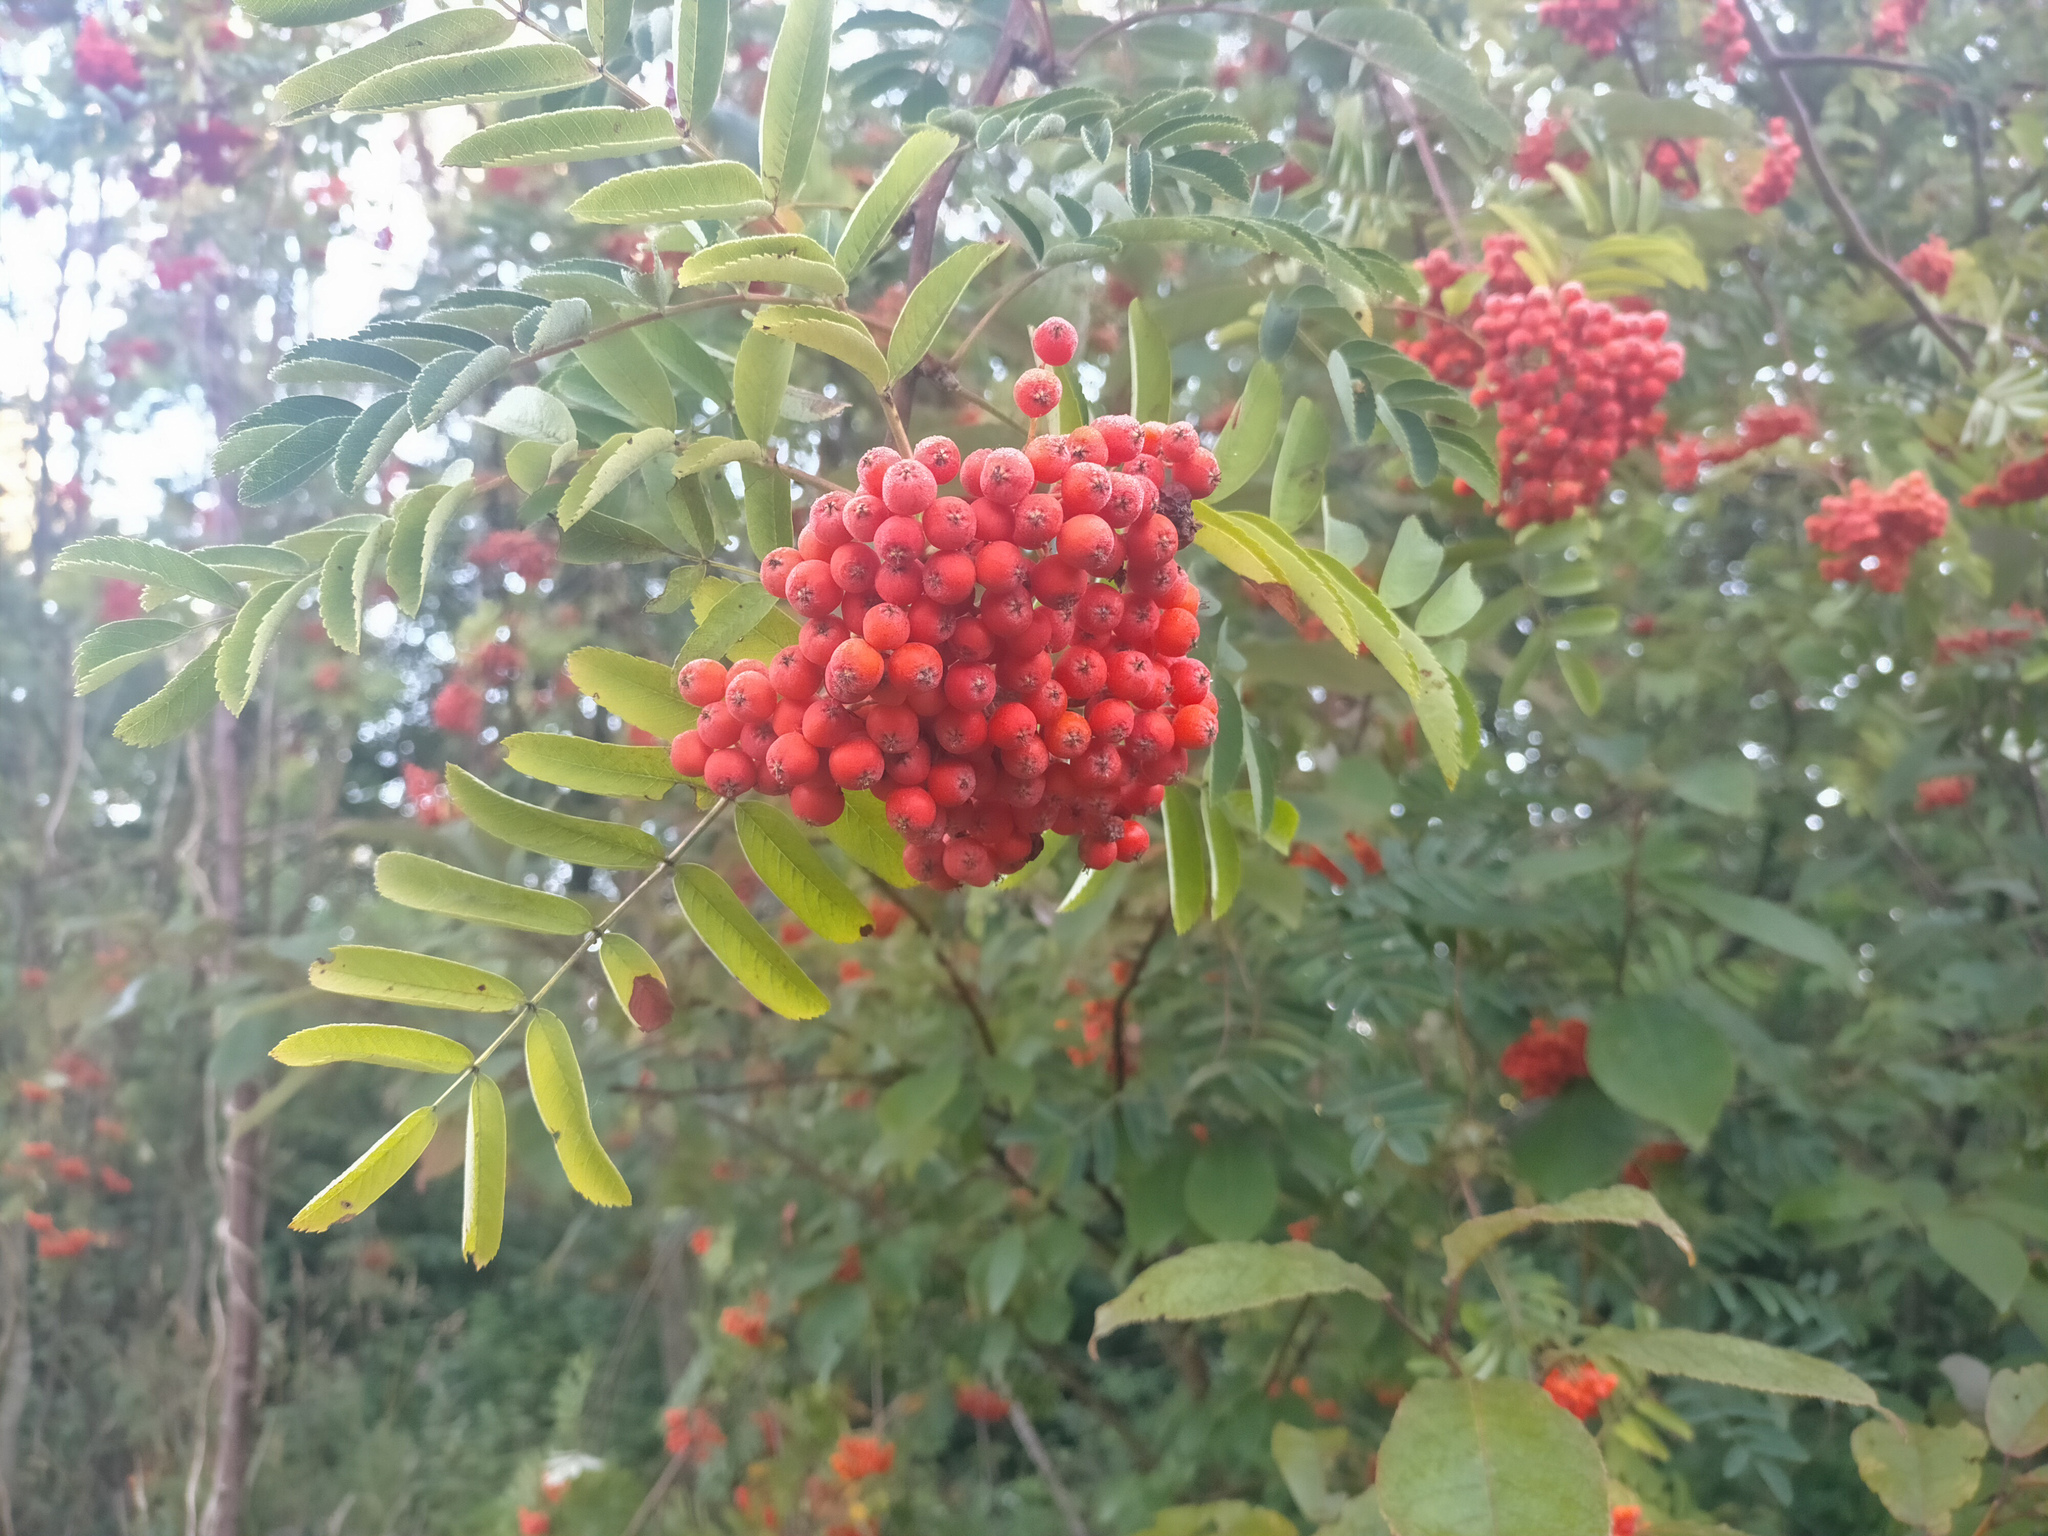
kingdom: Plantae
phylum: Tracheophyta
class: Magnoliopsida
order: Rosales
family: Rosaceae
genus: Sorbus
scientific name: Sorbus aucuparia
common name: Rowan
